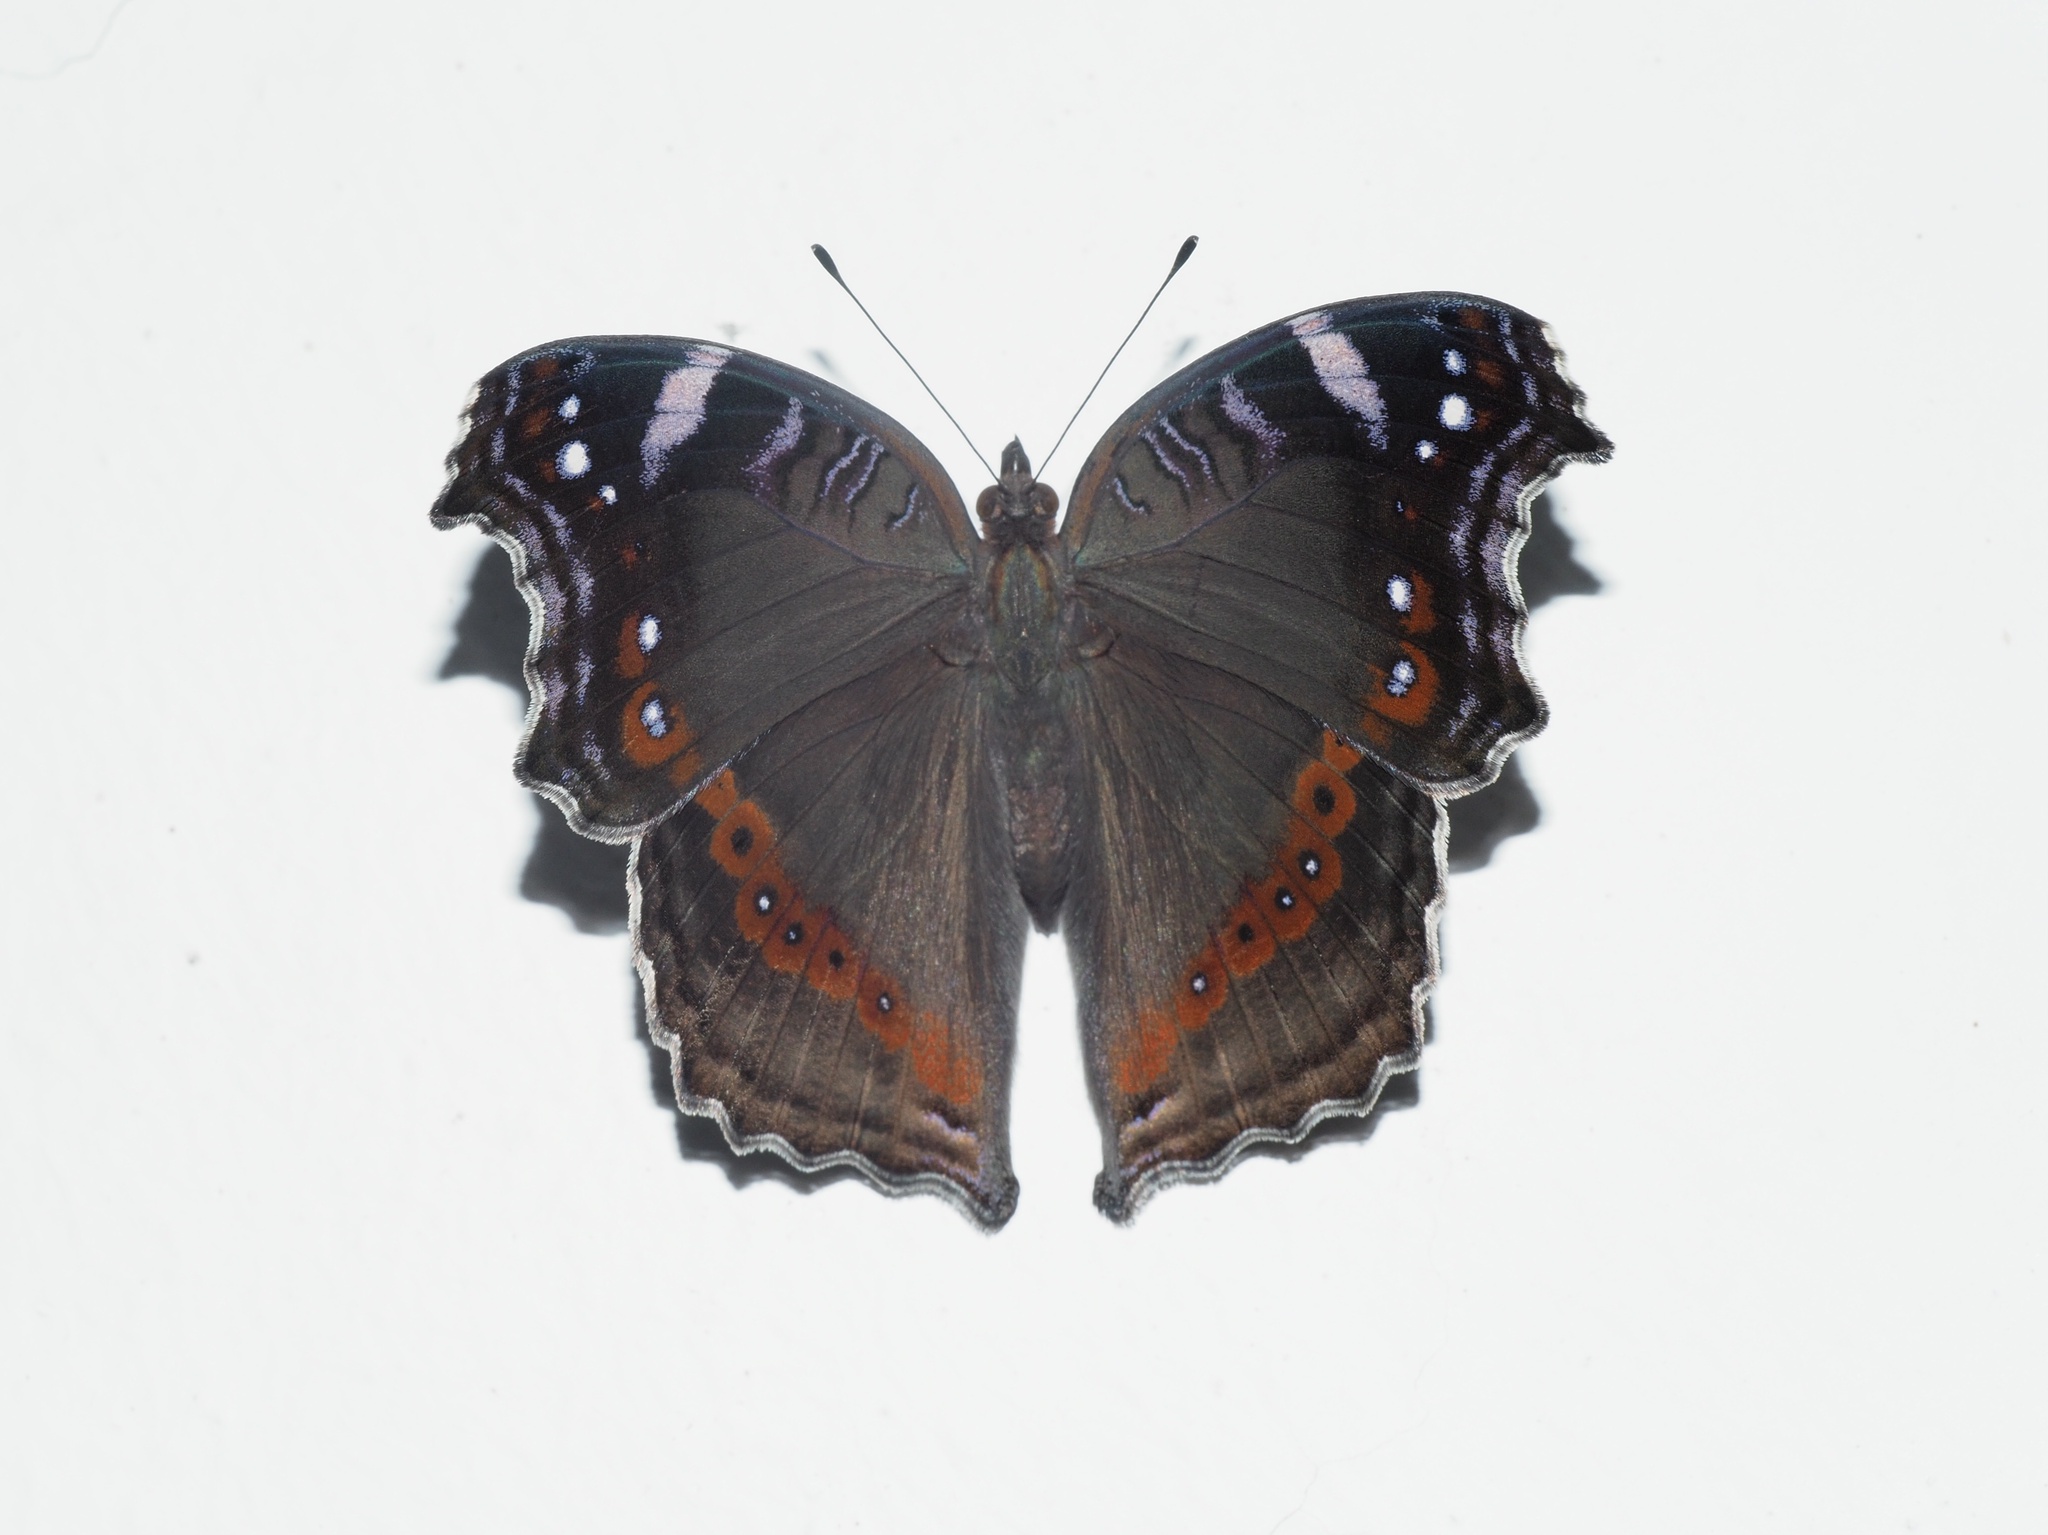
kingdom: Animalia
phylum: Arthropoda
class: Insecta
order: Lepidoptera
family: Nymphalidae
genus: Junonia
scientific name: Junonia archesia
